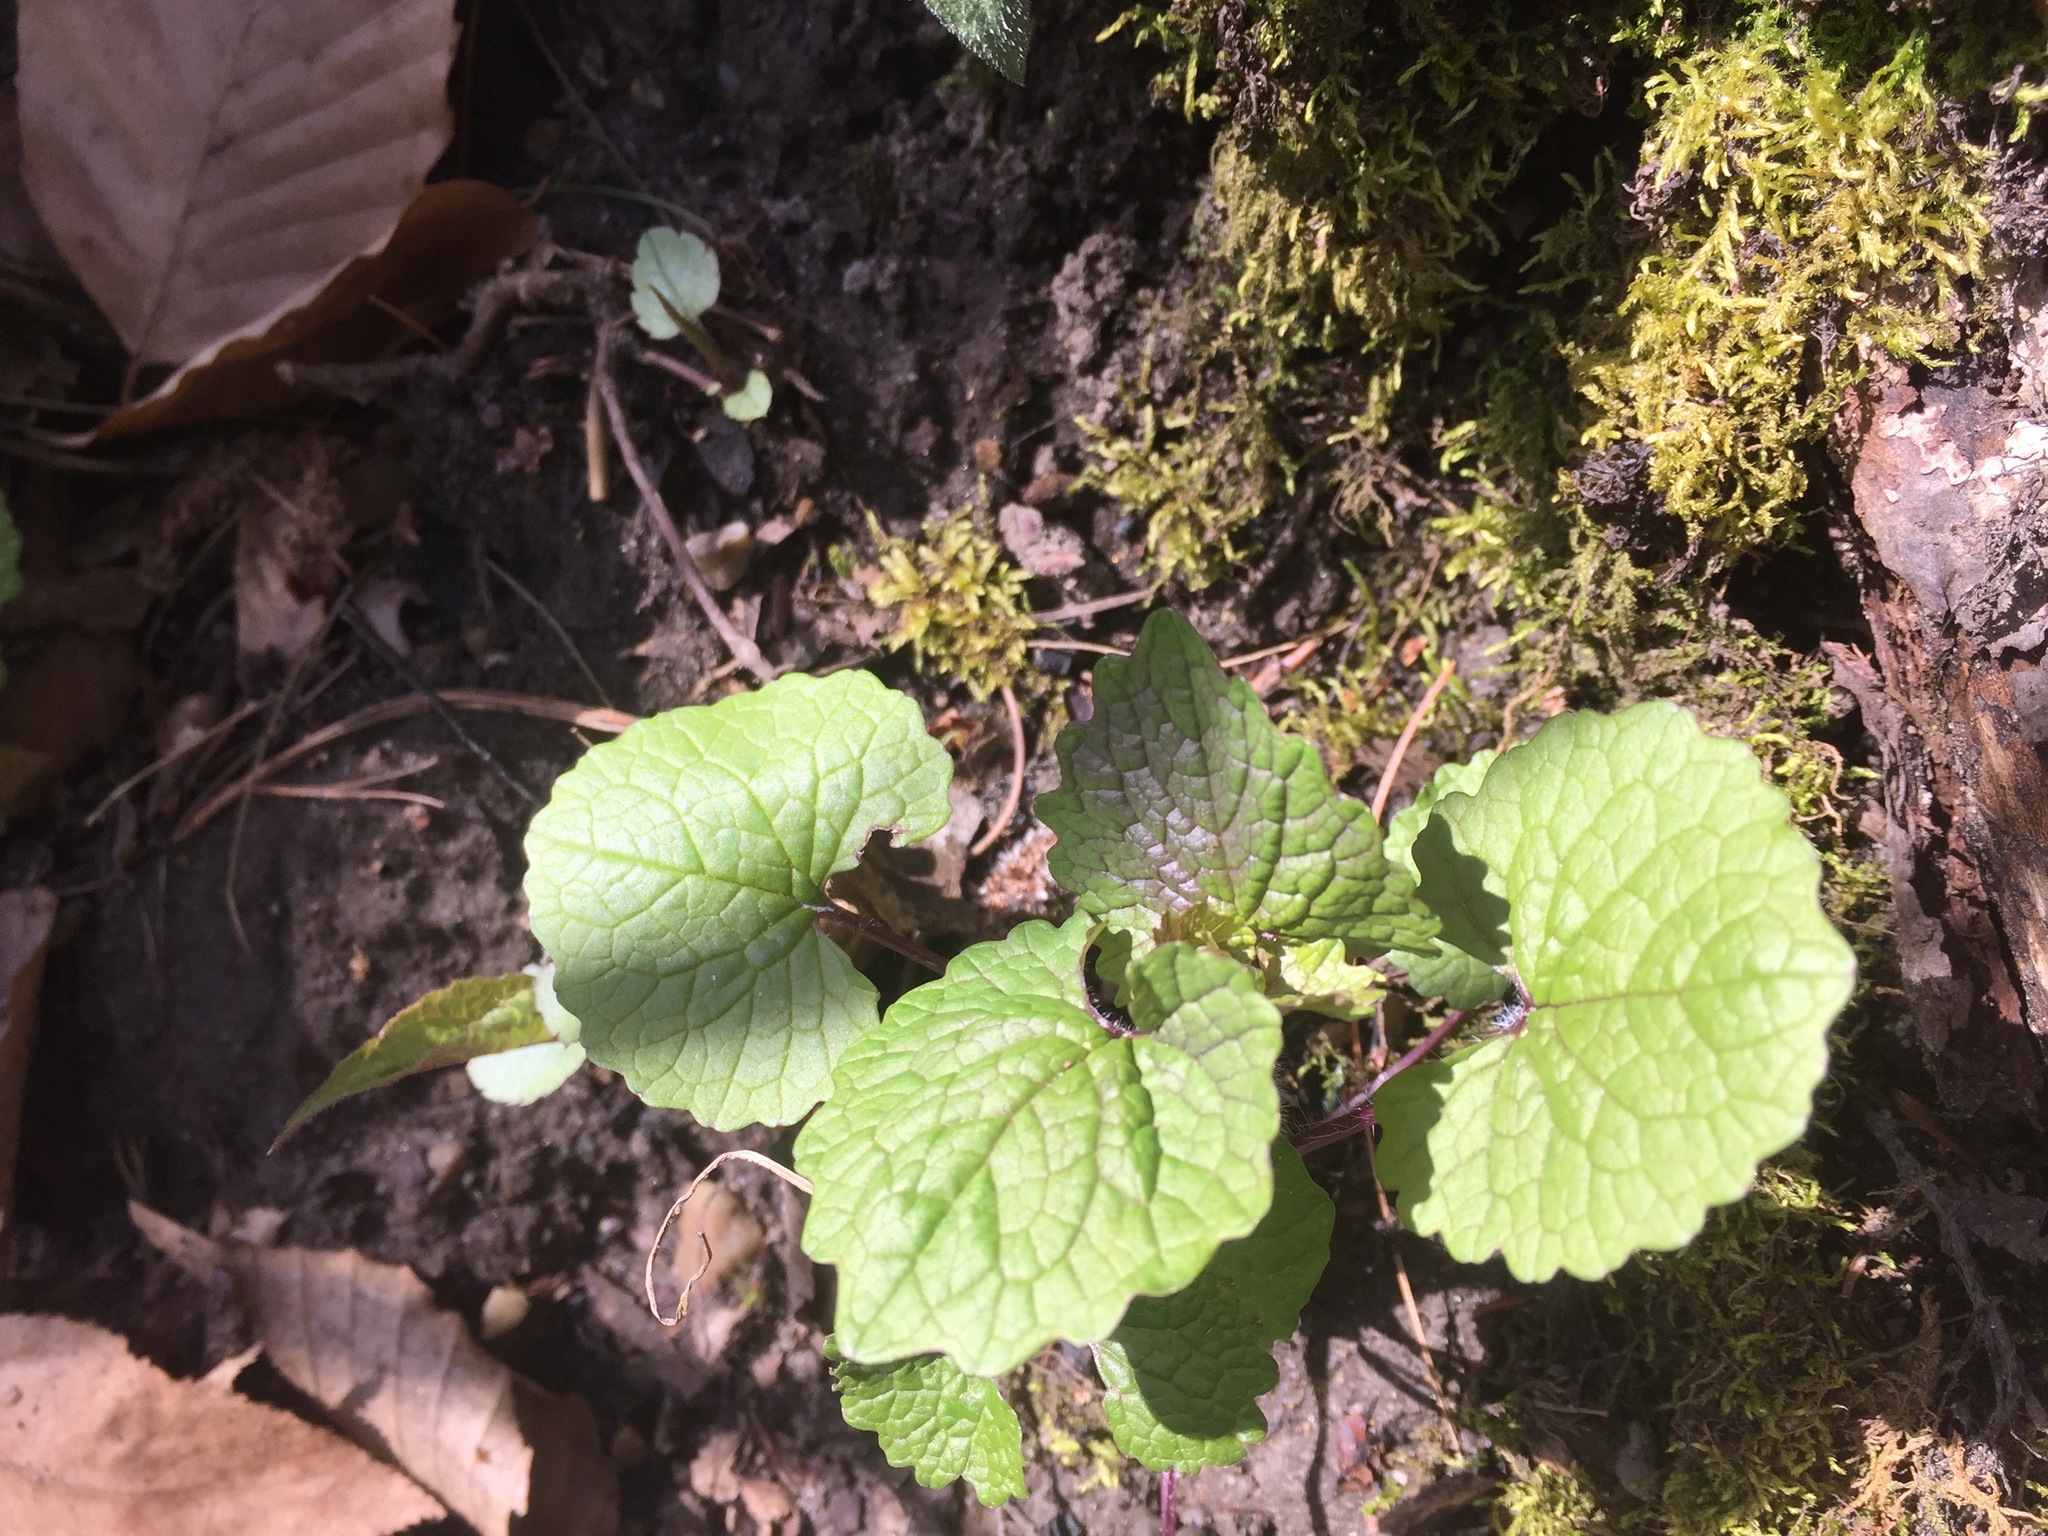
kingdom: Plantae
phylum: Tracheophyta
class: Magnoliopsida
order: Brassicales
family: Brassicaceae
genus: Alliaria
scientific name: Alliaria petiolata
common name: Garlic mustard
